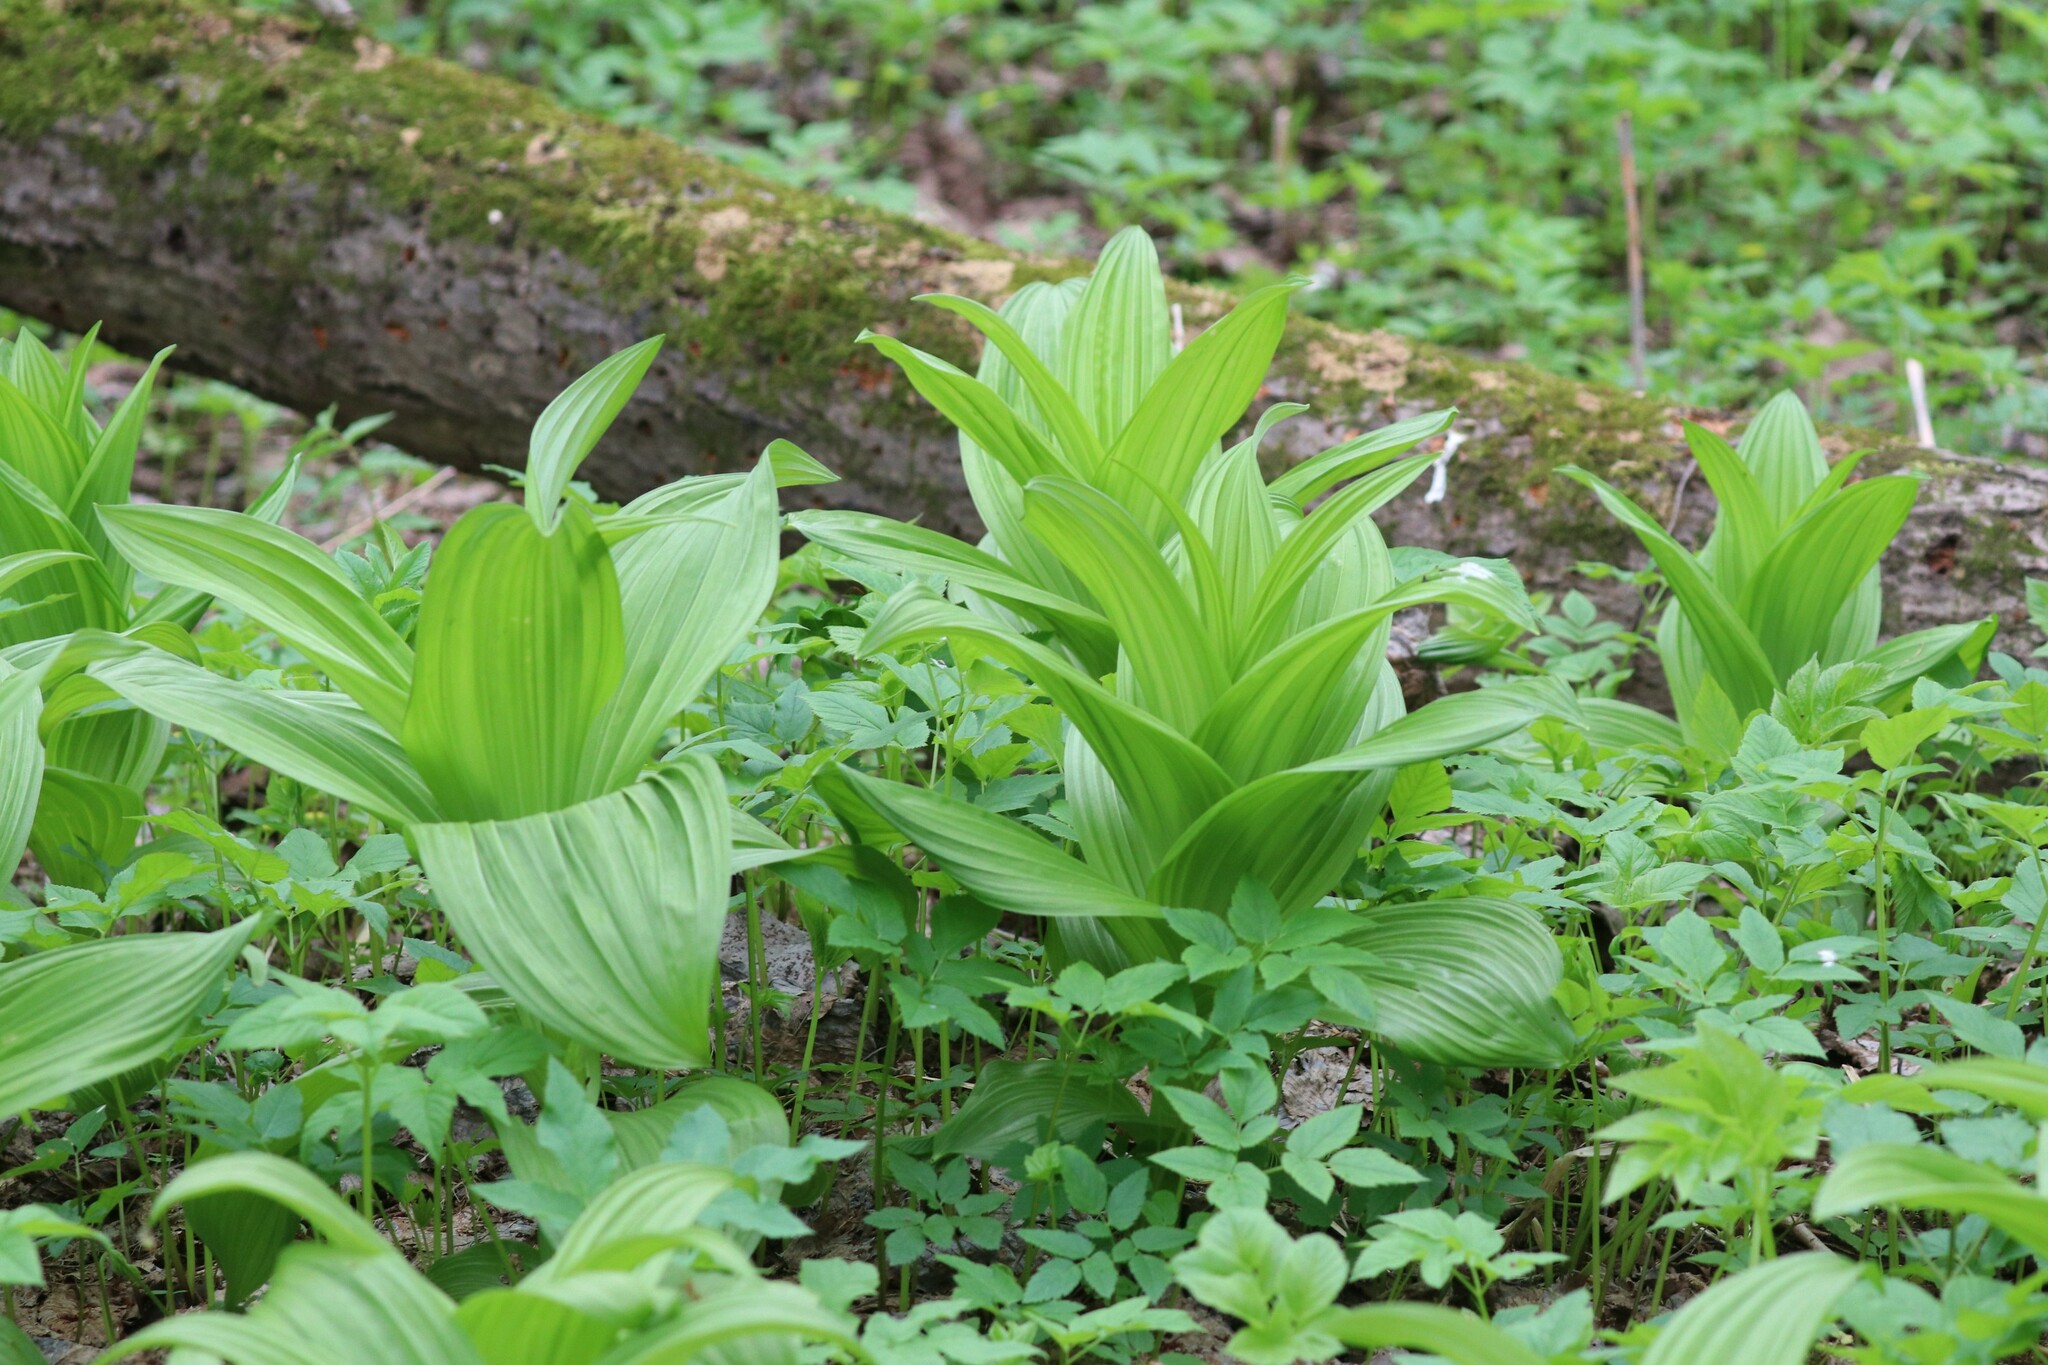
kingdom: Plantae
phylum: Tracheophyta
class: Liliopsida
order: Liliales
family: Melanthiaceae
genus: Veratrum
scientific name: Veratrum lobelianum
